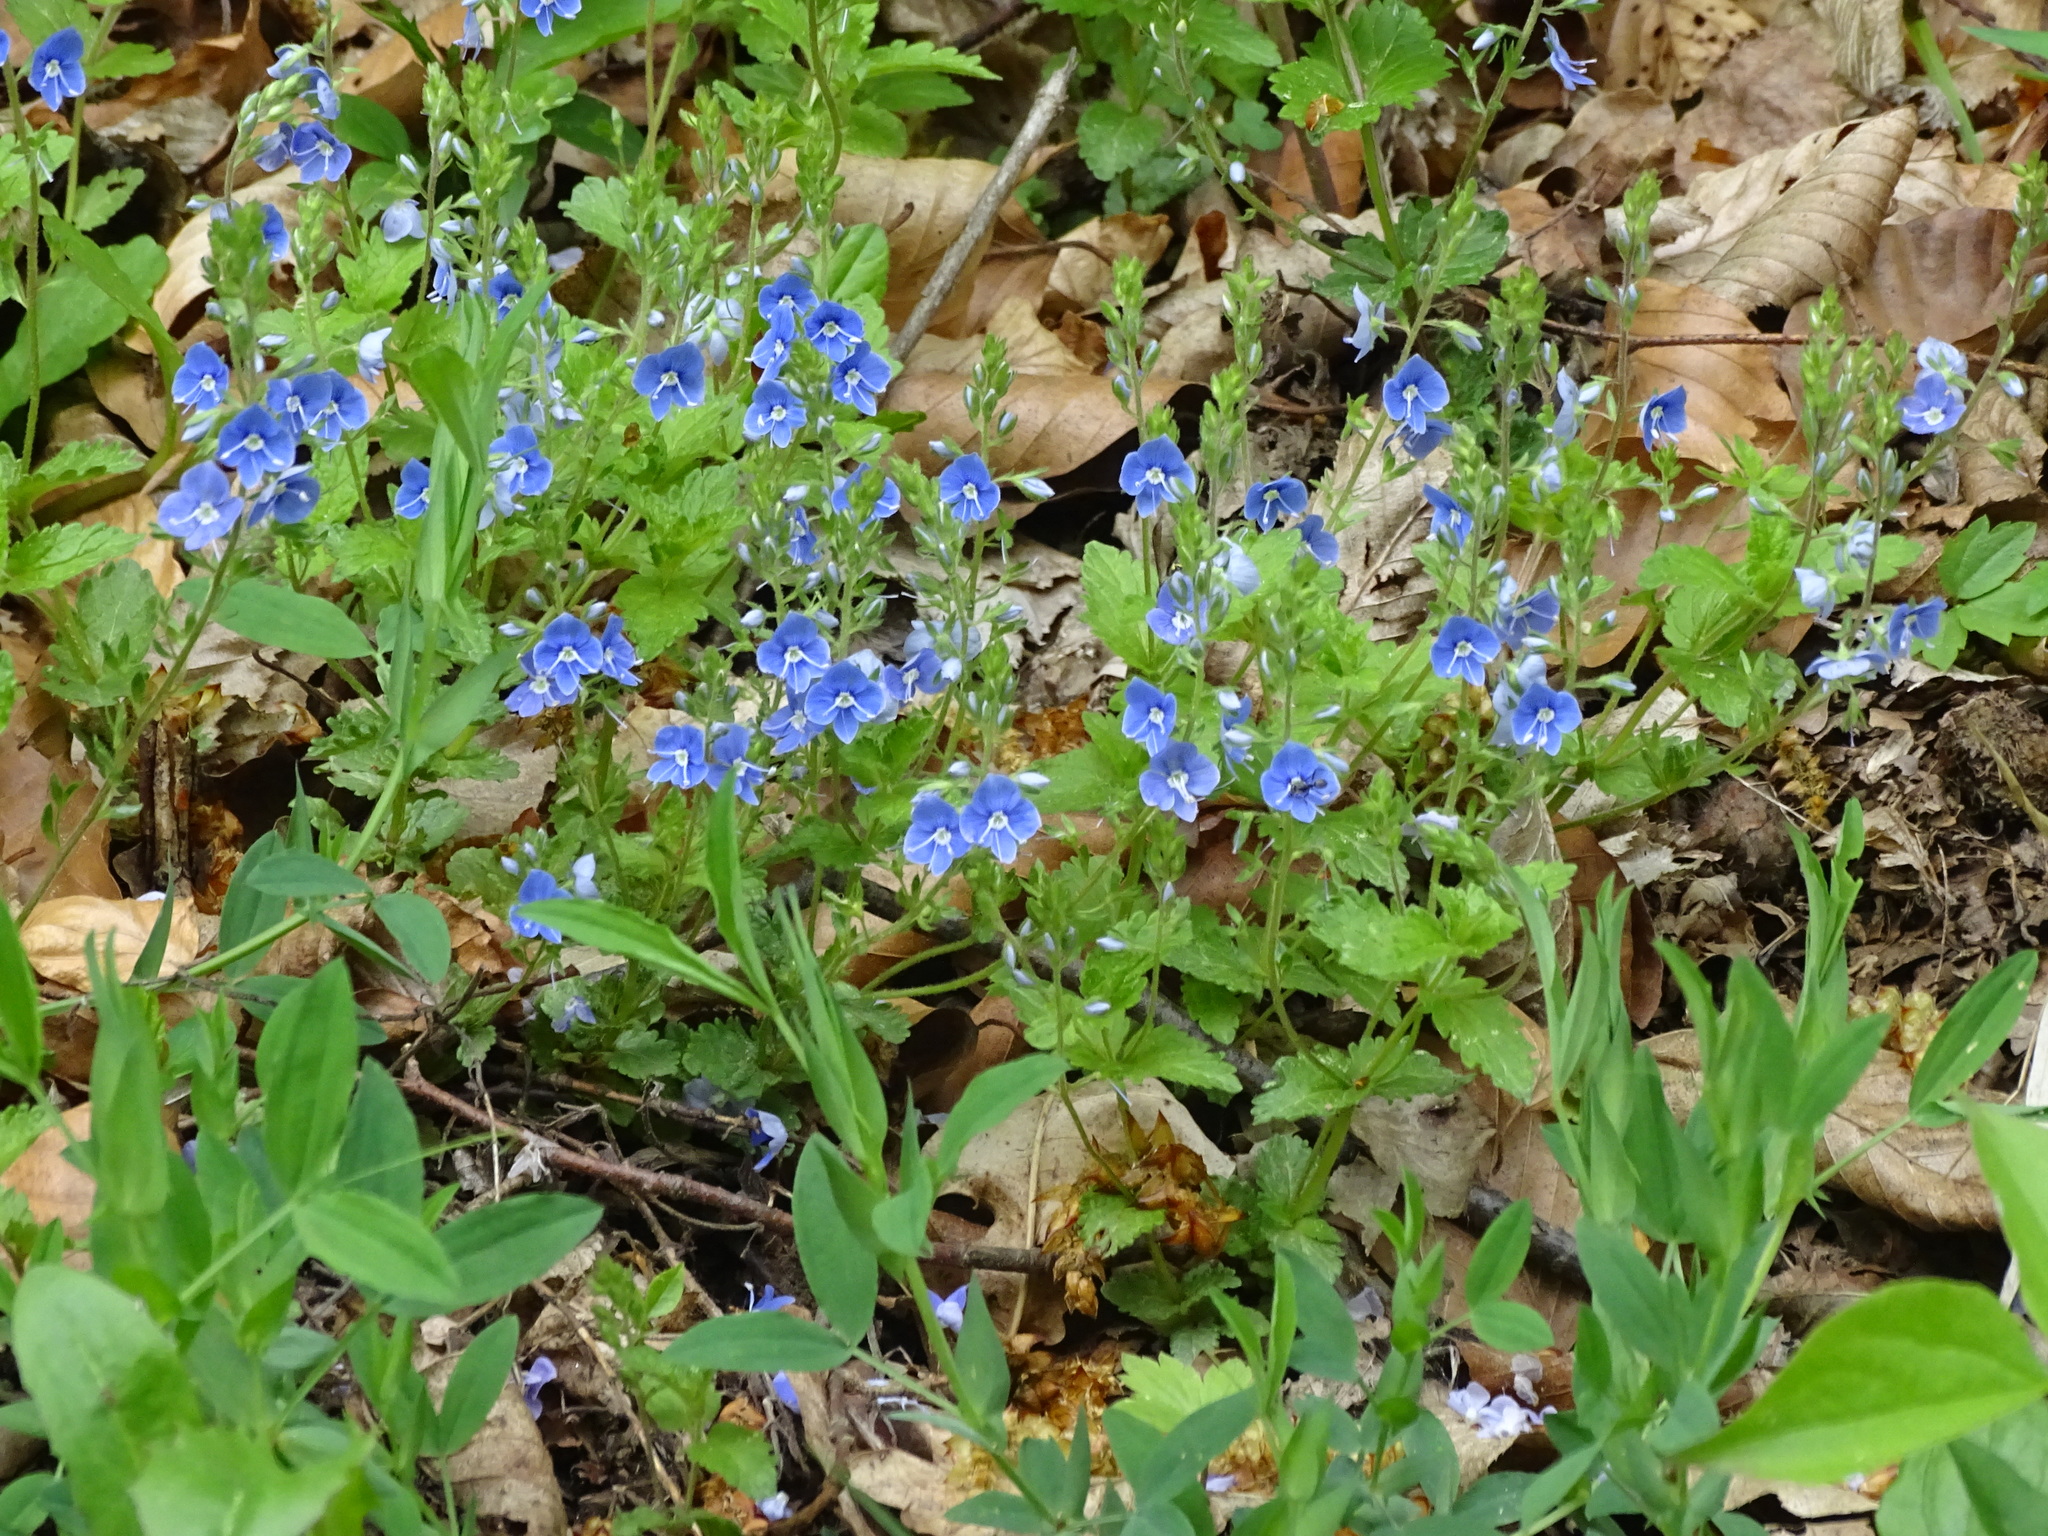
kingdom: Plantae
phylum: Tracheophyta
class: Magnoliopsida
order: Lamiales
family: Plantaginaceae
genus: Veronica
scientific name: Veronica chamaedrys
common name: Germander speedwell
